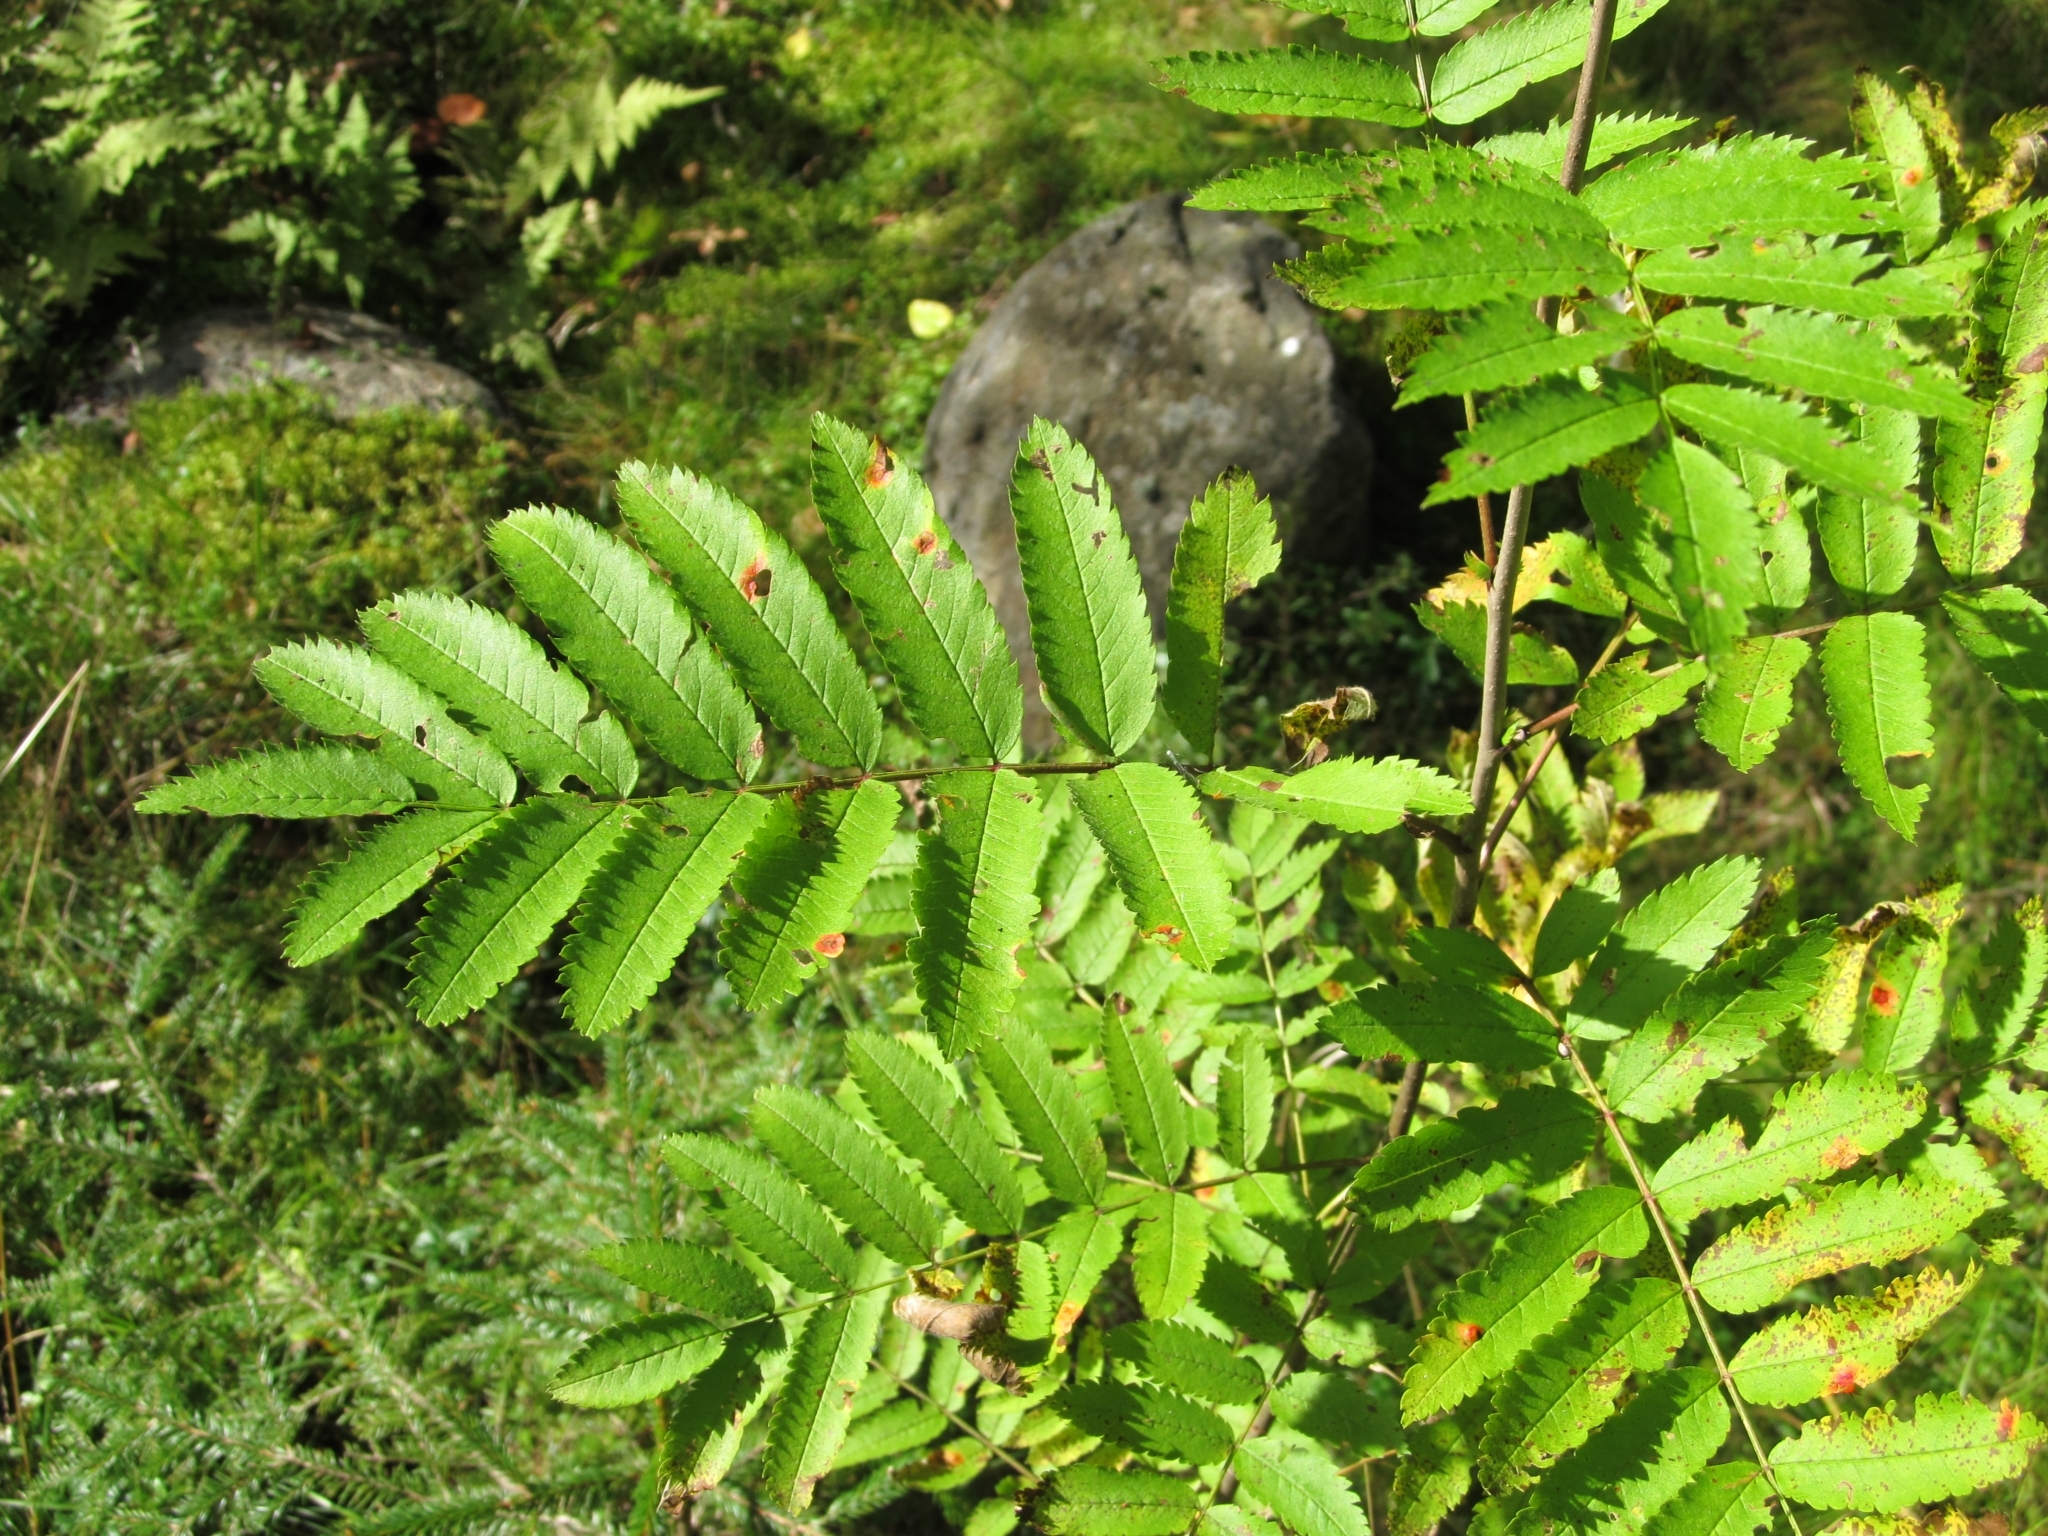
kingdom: Plantae
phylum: Tracheophyta
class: Magnoliopsida
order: Rosales
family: Rosaceae
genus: Sorbus
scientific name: Sorbus aucuparia
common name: Rowan
